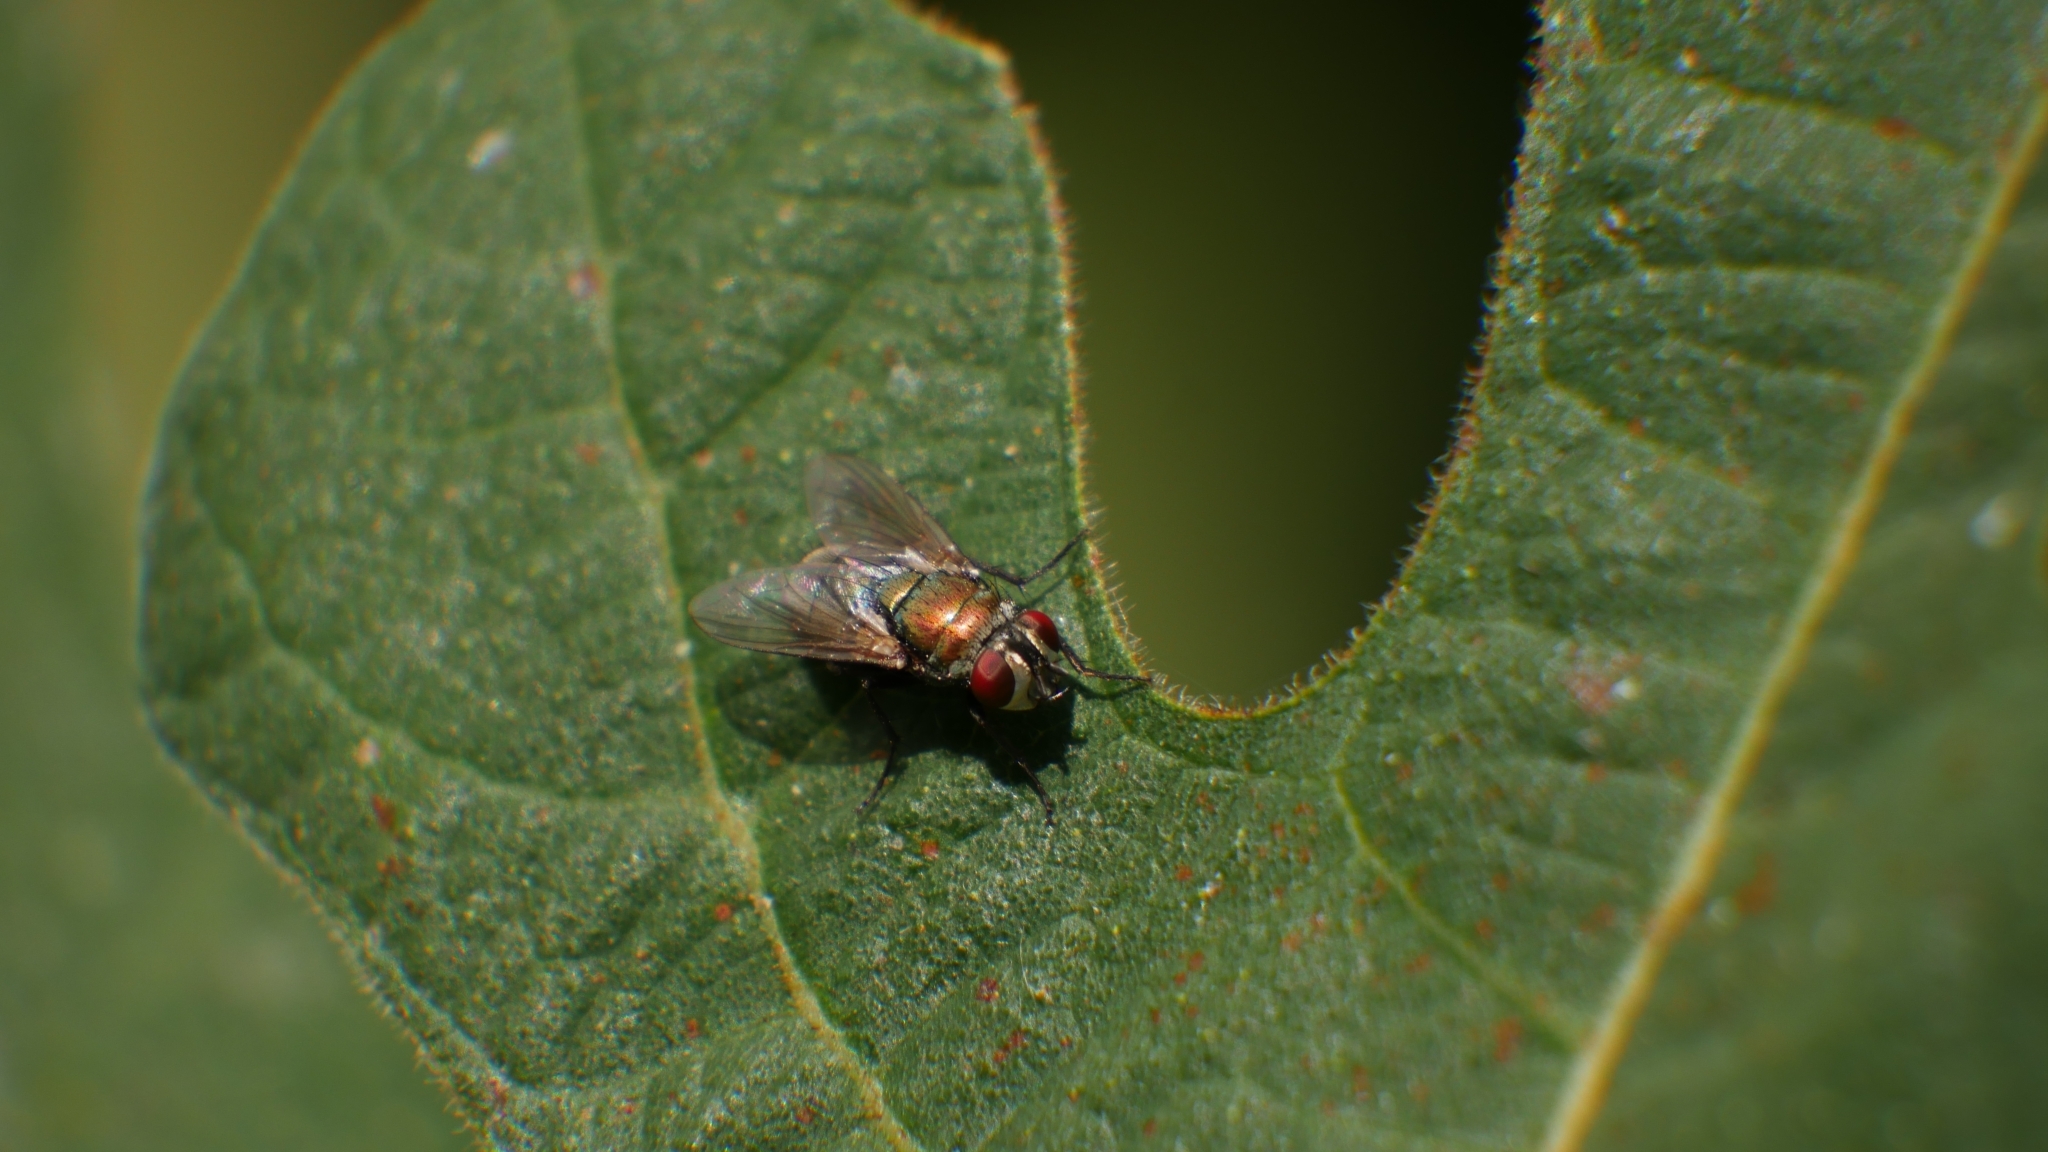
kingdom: Animalia
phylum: Arthropoda
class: Insecta
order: Diptera
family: Calliphoridae
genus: Lucilia
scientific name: Lucilia cuprina
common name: Sheep blow fly
